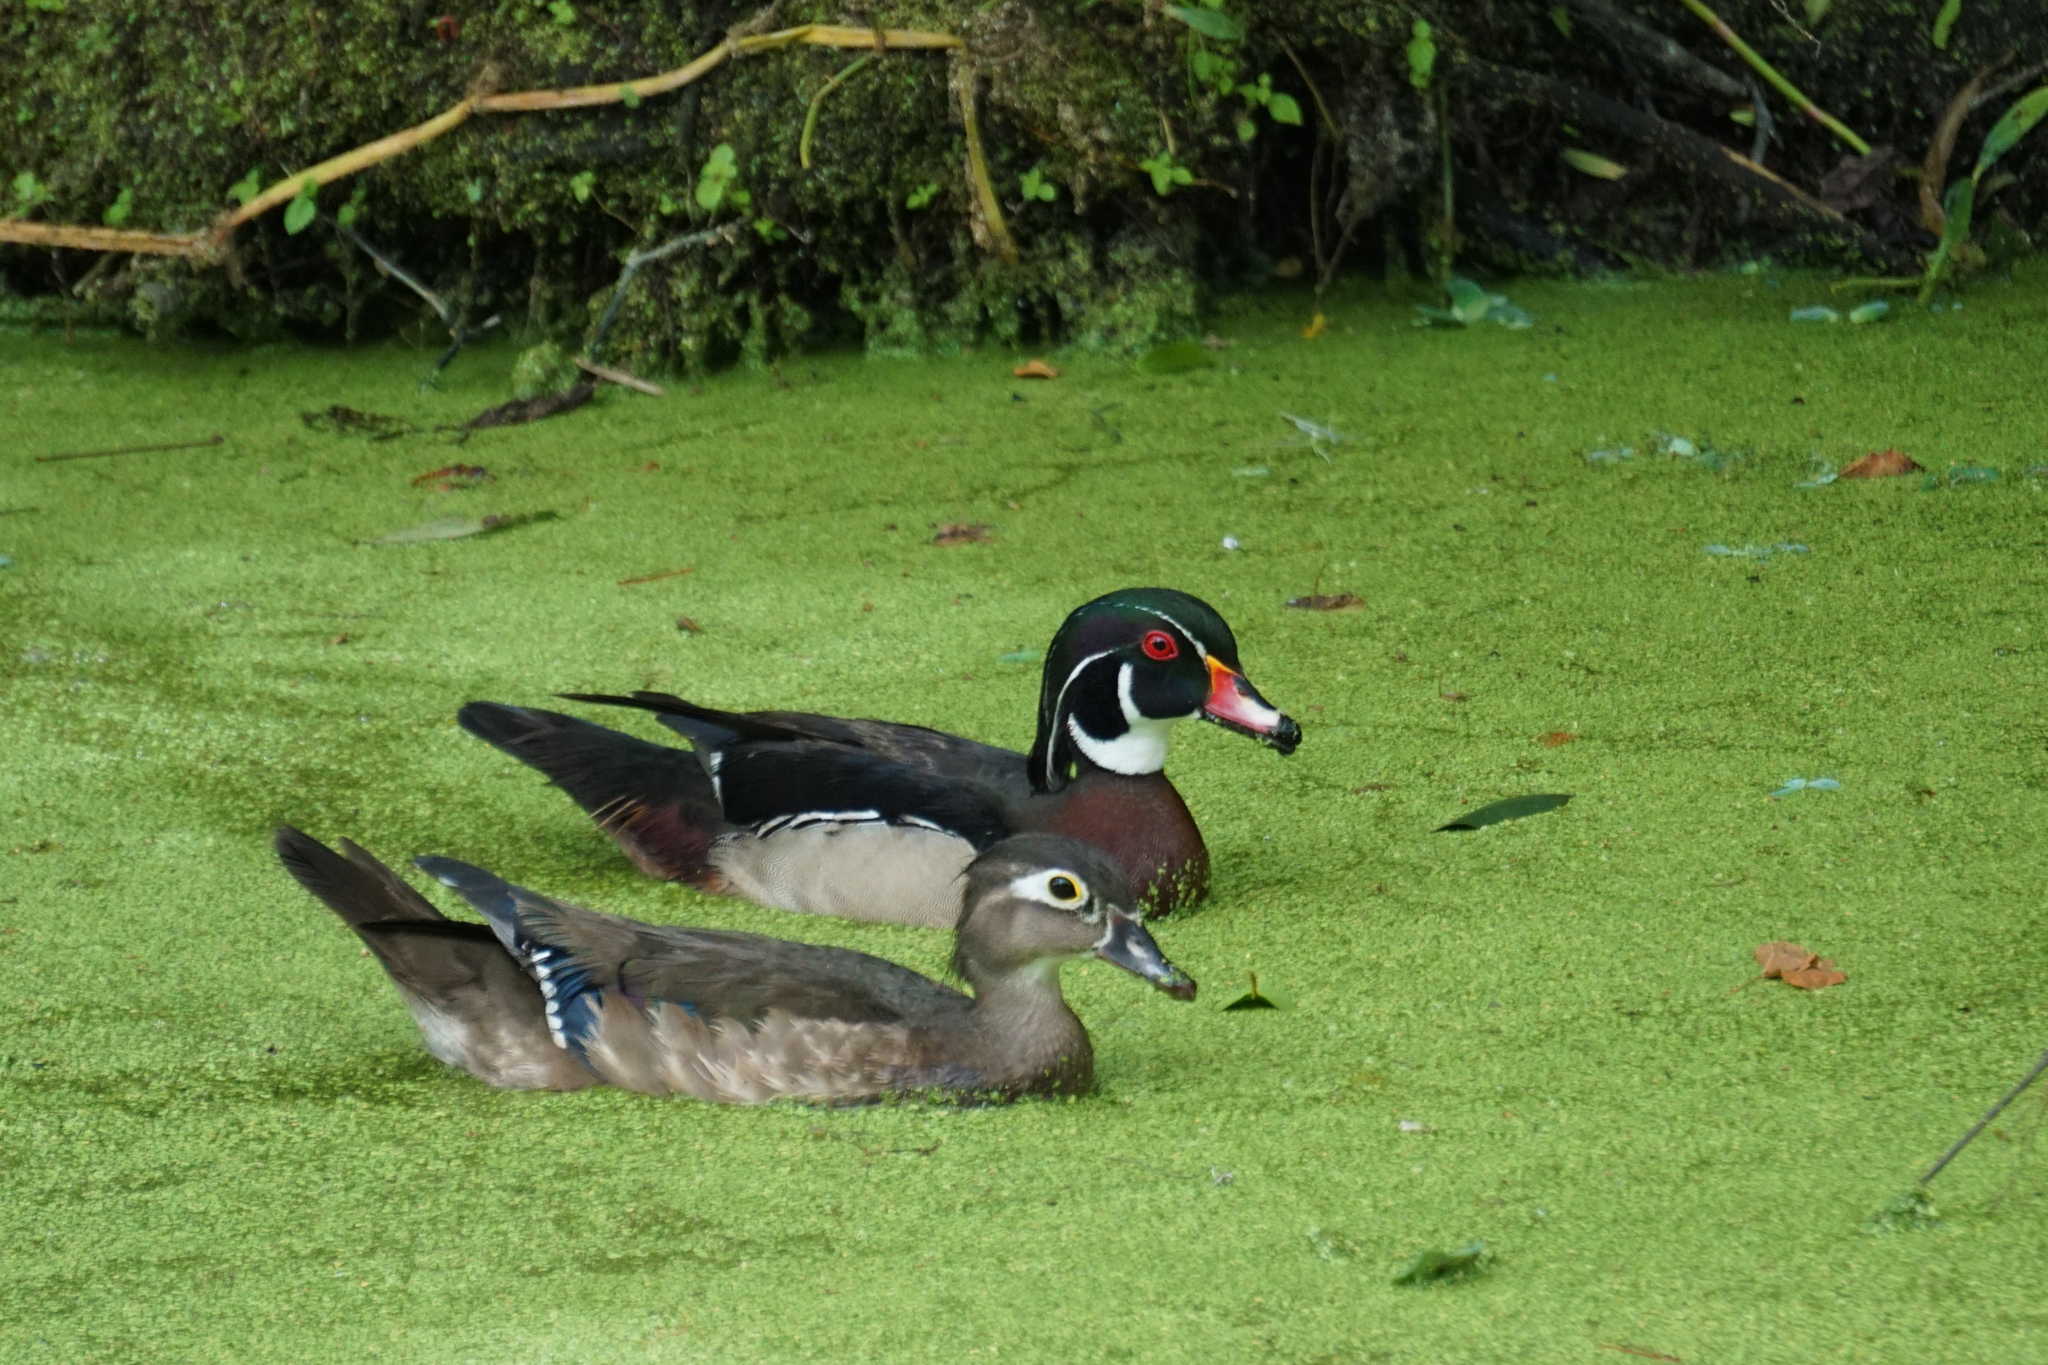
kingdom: Animalia
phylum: Chordata
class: Aves
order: Anseriformes
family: Anatidae
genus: Aix
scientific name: Aix sponsa
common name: Wood duck
